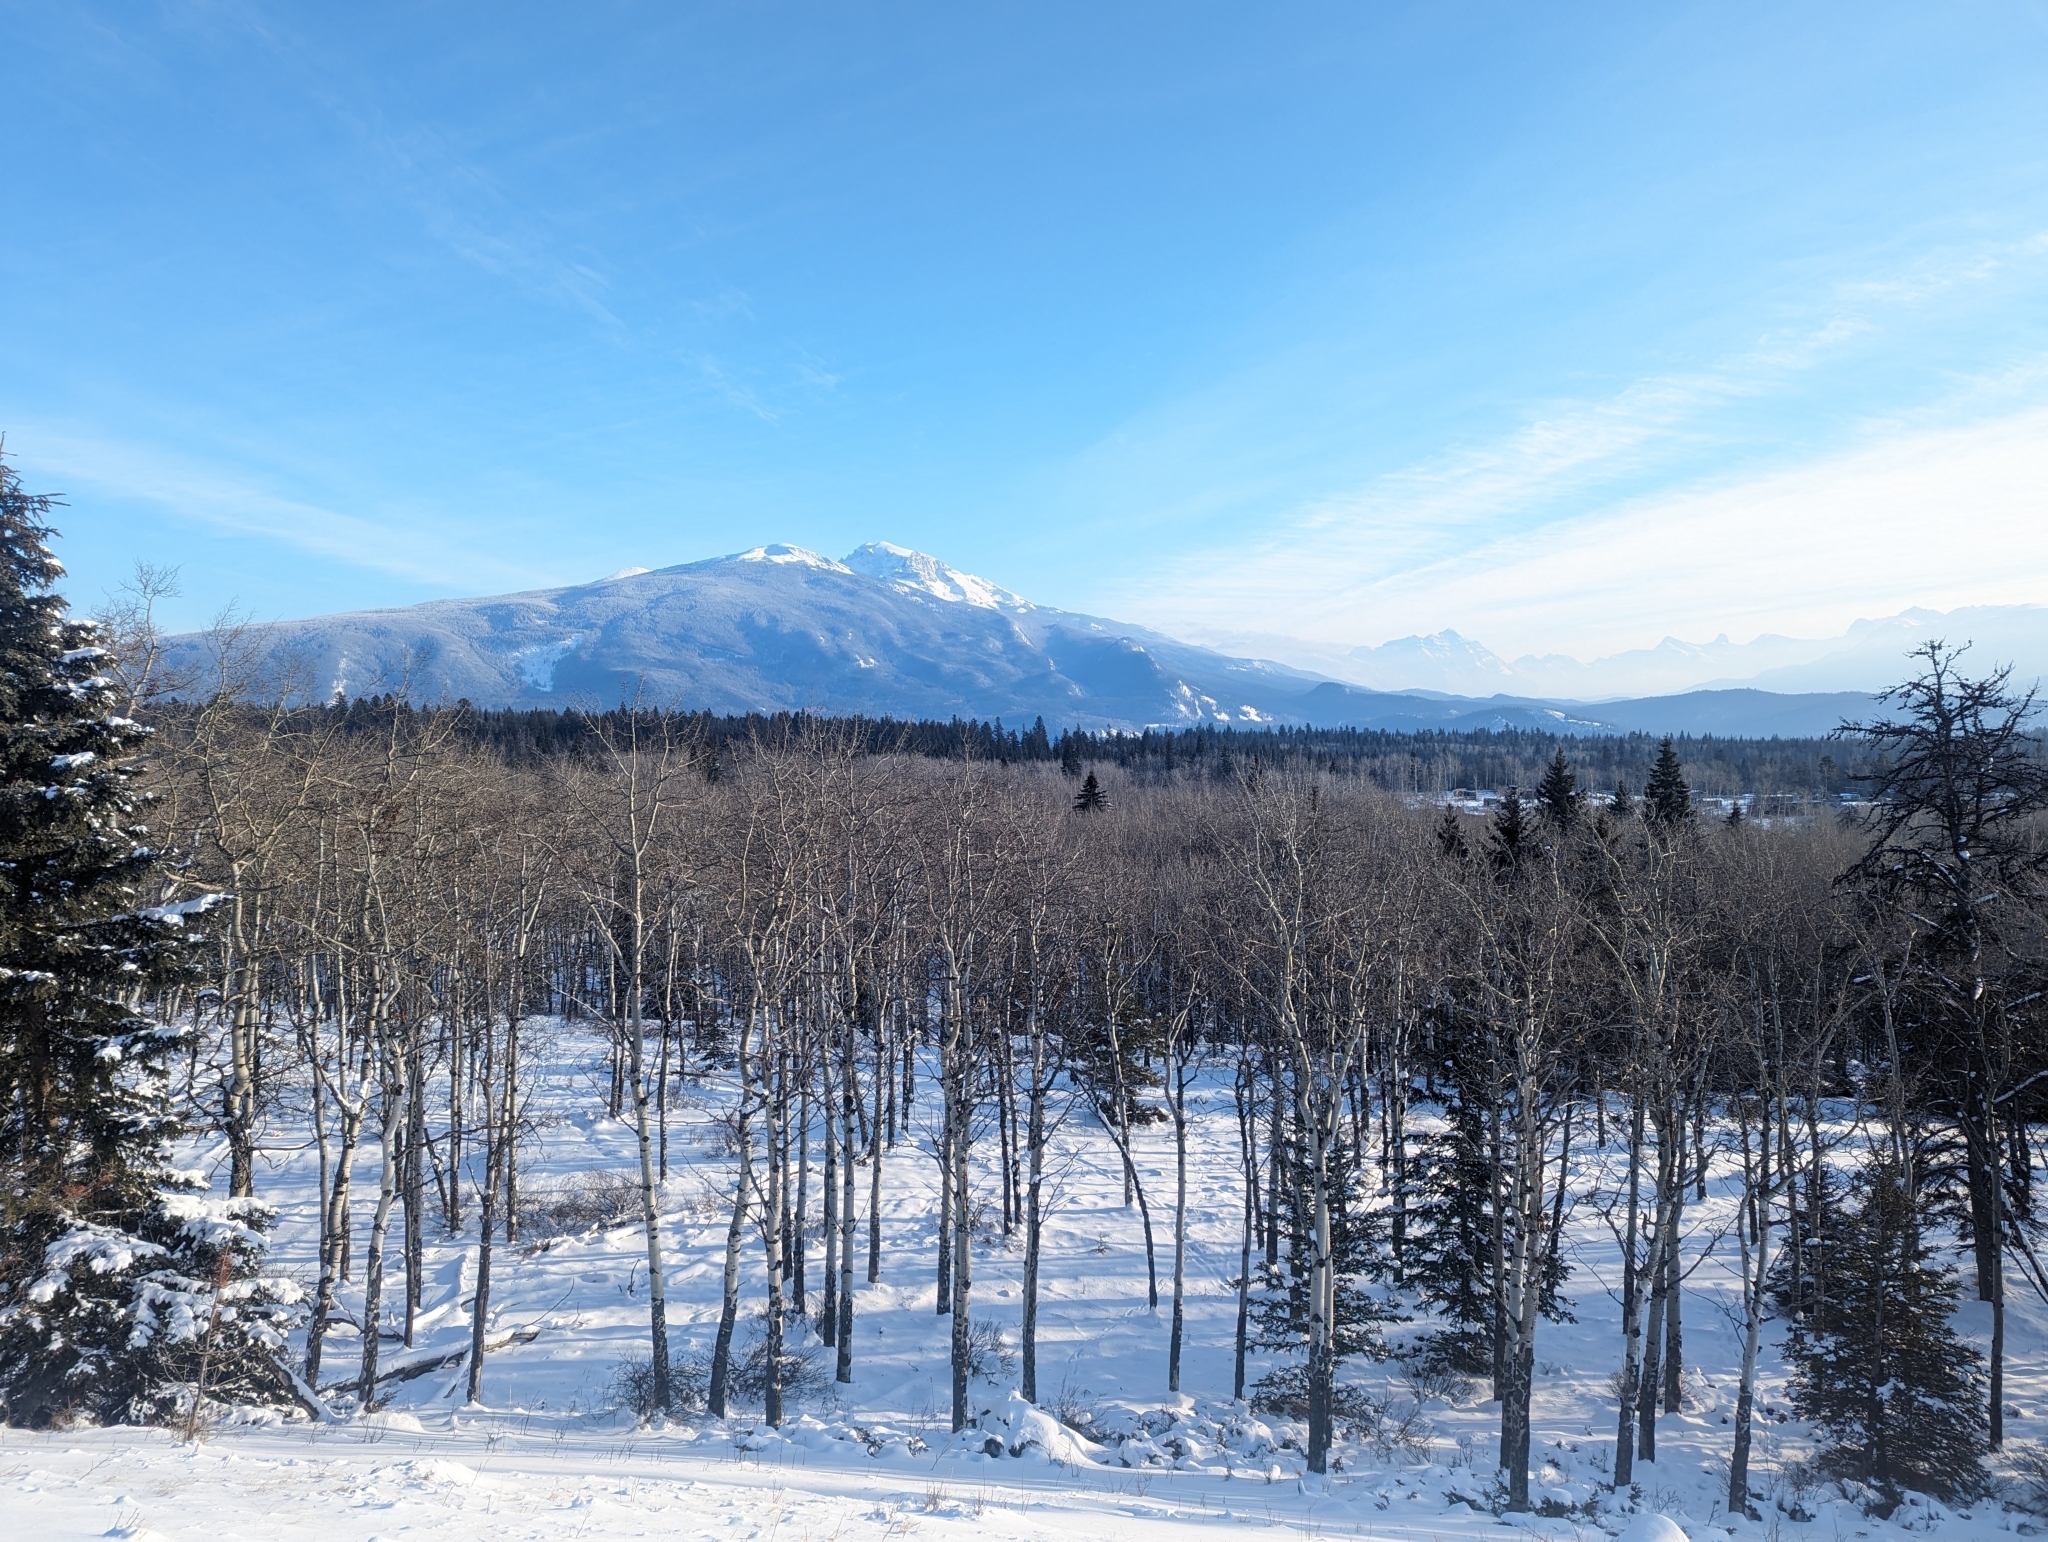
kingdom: Plantae
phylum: Tracheophyta
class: Magnoliopsida
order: Malpighiales
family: Salicaceae
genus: Populus
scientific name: Populus tremuloides
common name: Quaking aspen
